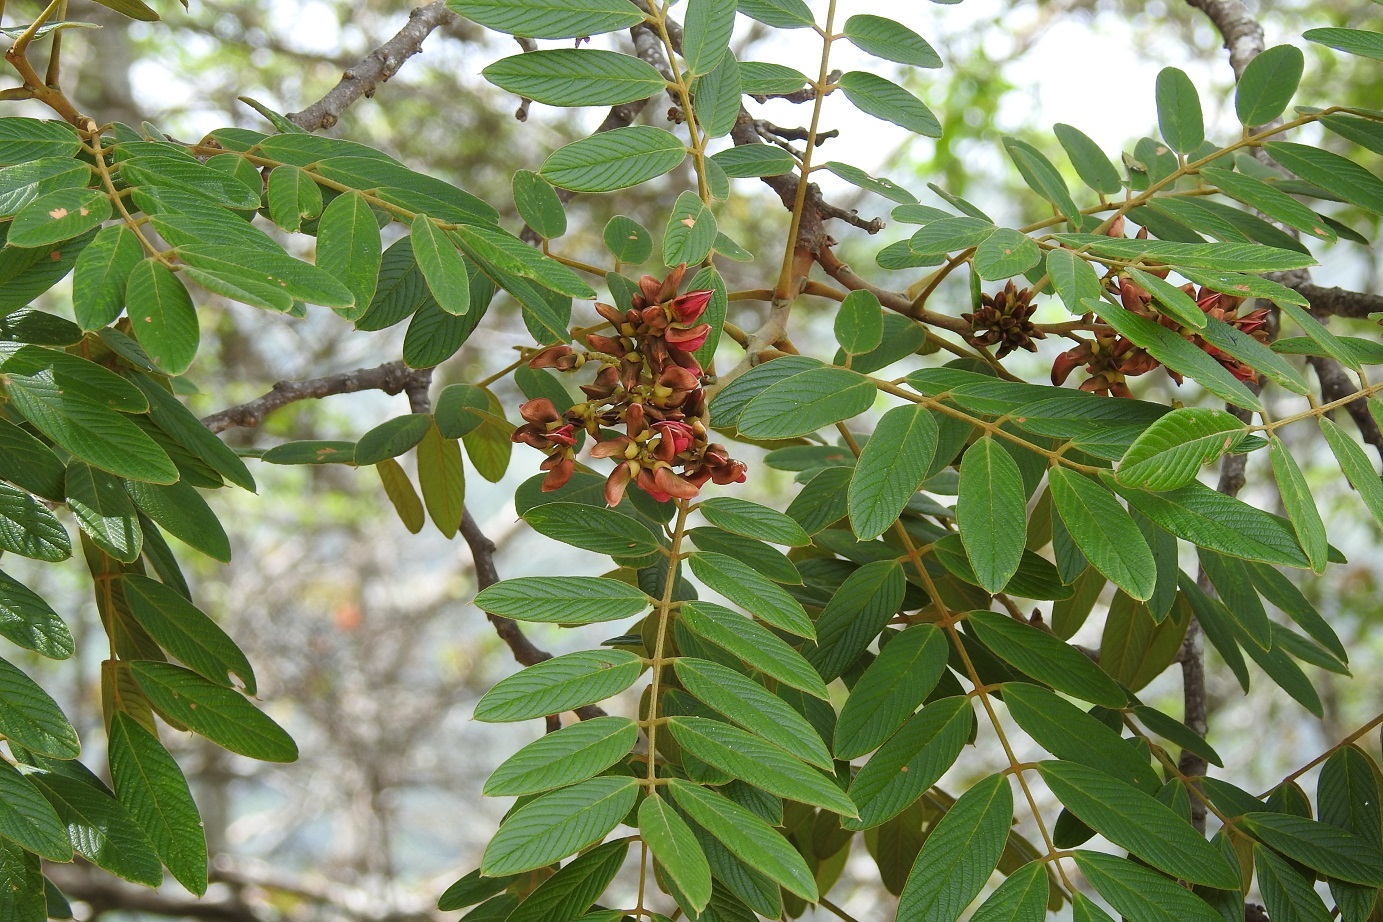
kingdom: Plantae
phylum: Tracheophyta
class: Magnoliopsida
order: Fabales
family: Fabaceae
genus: Lonchocarpus
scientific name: Lonchocarpus rugosus
